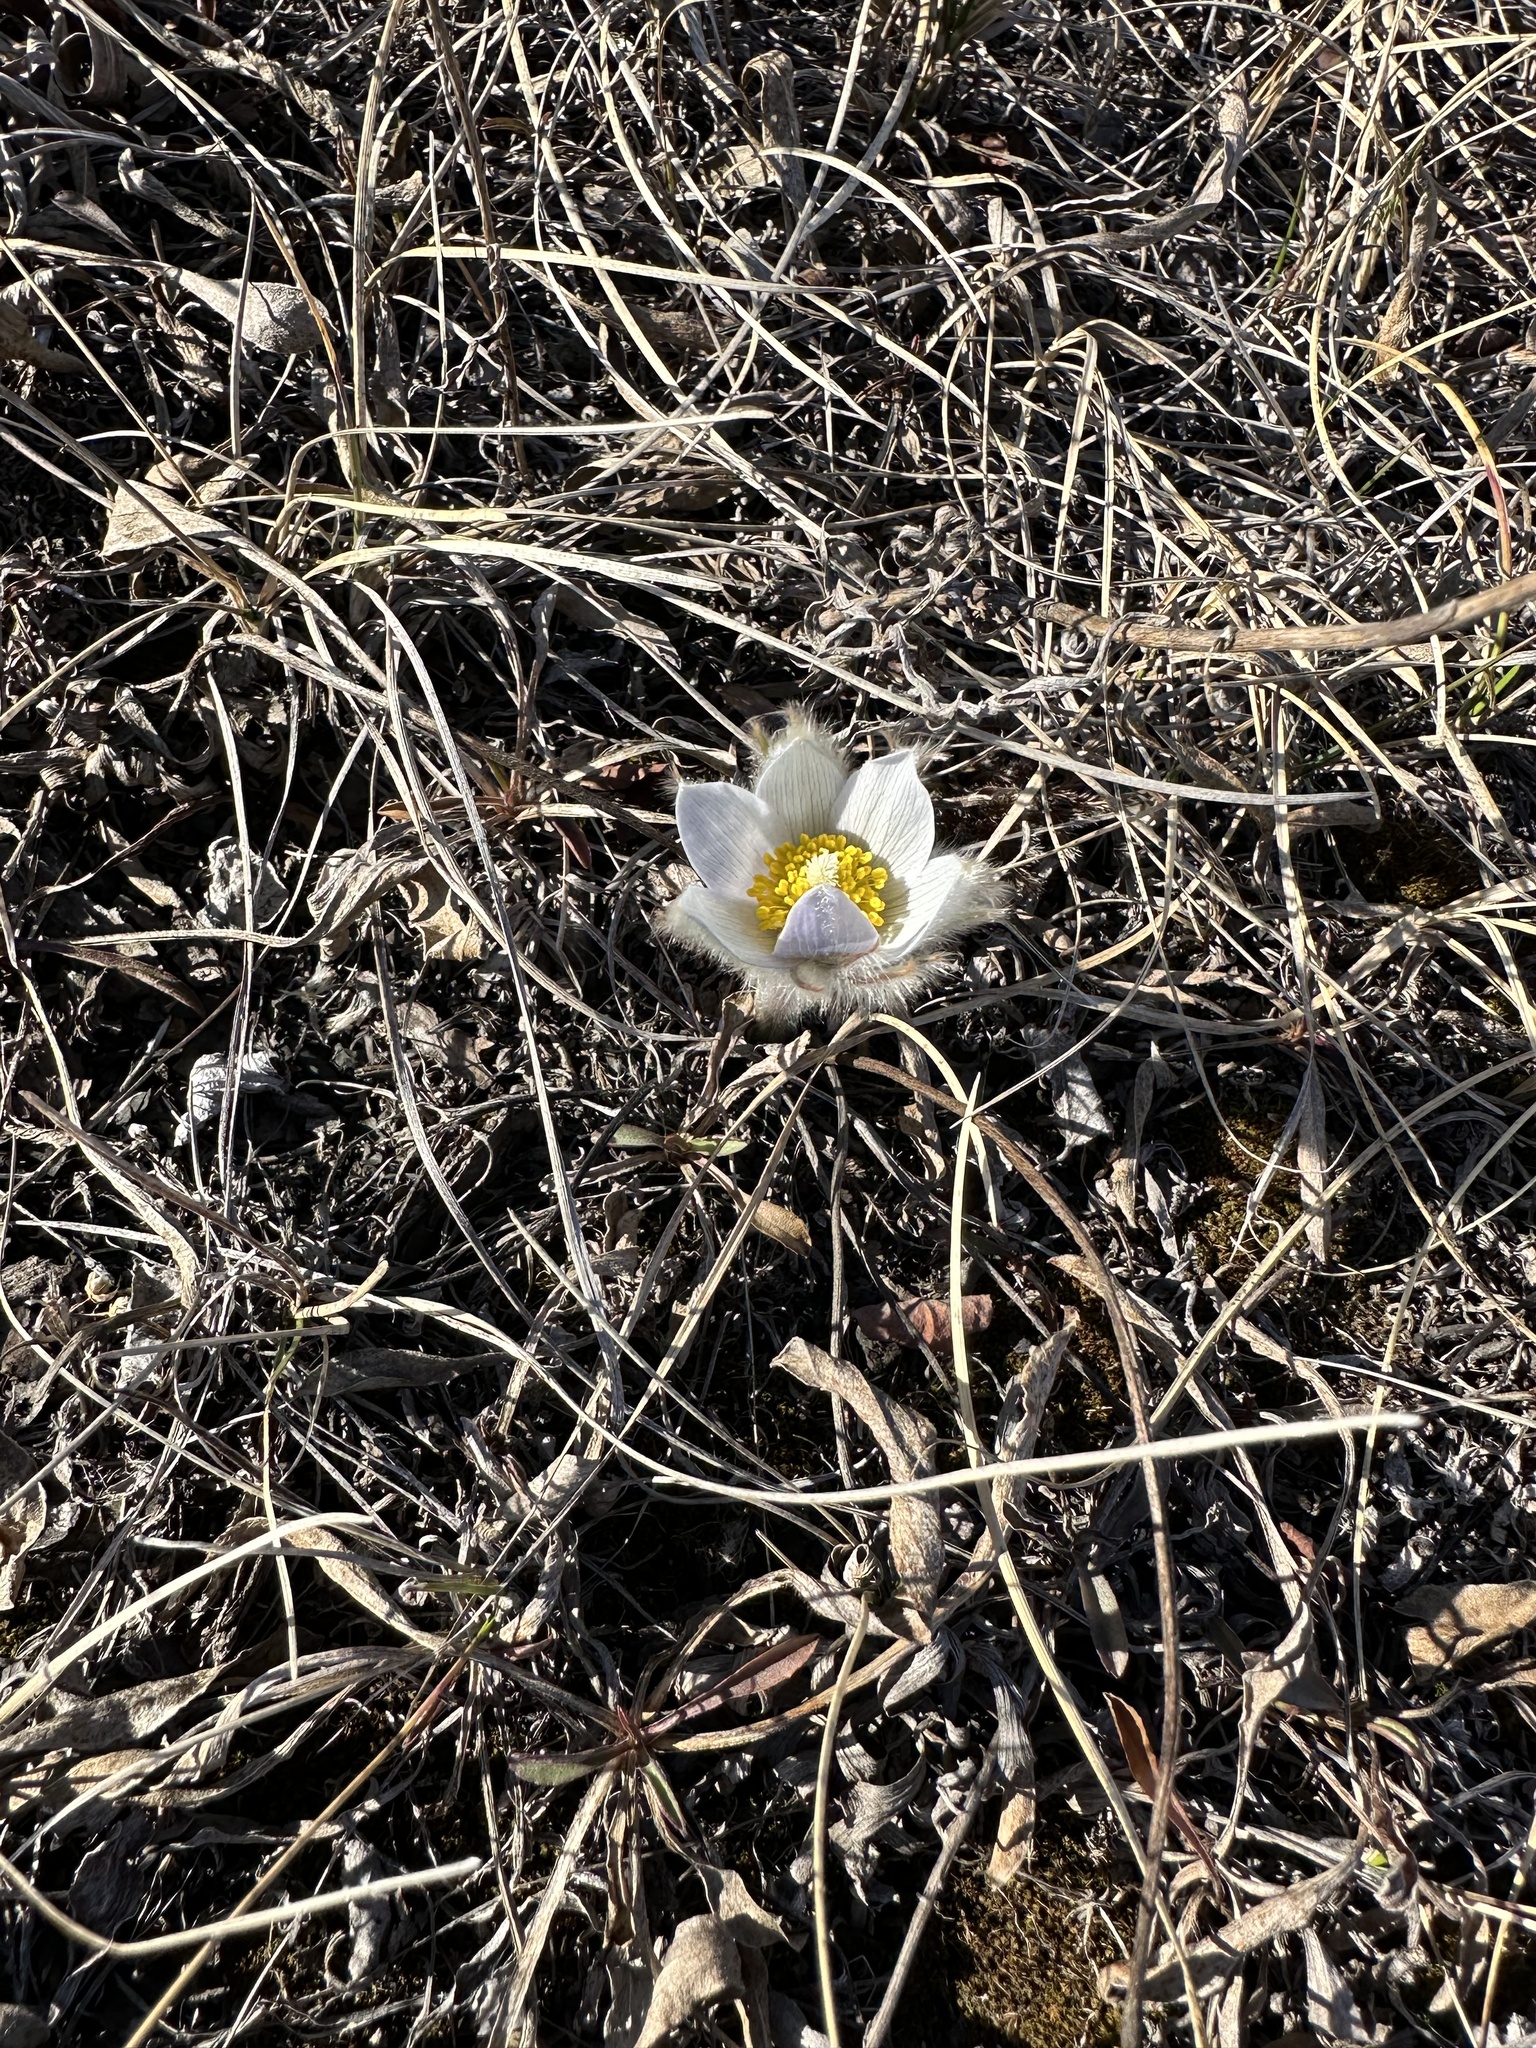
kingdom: Plantae
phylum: Tracheophyta
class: Magnoliopsida
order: Ranunculales
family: Ranunculaceae
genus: Pulsatilla
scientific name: Pulsatilla nuttalliana
